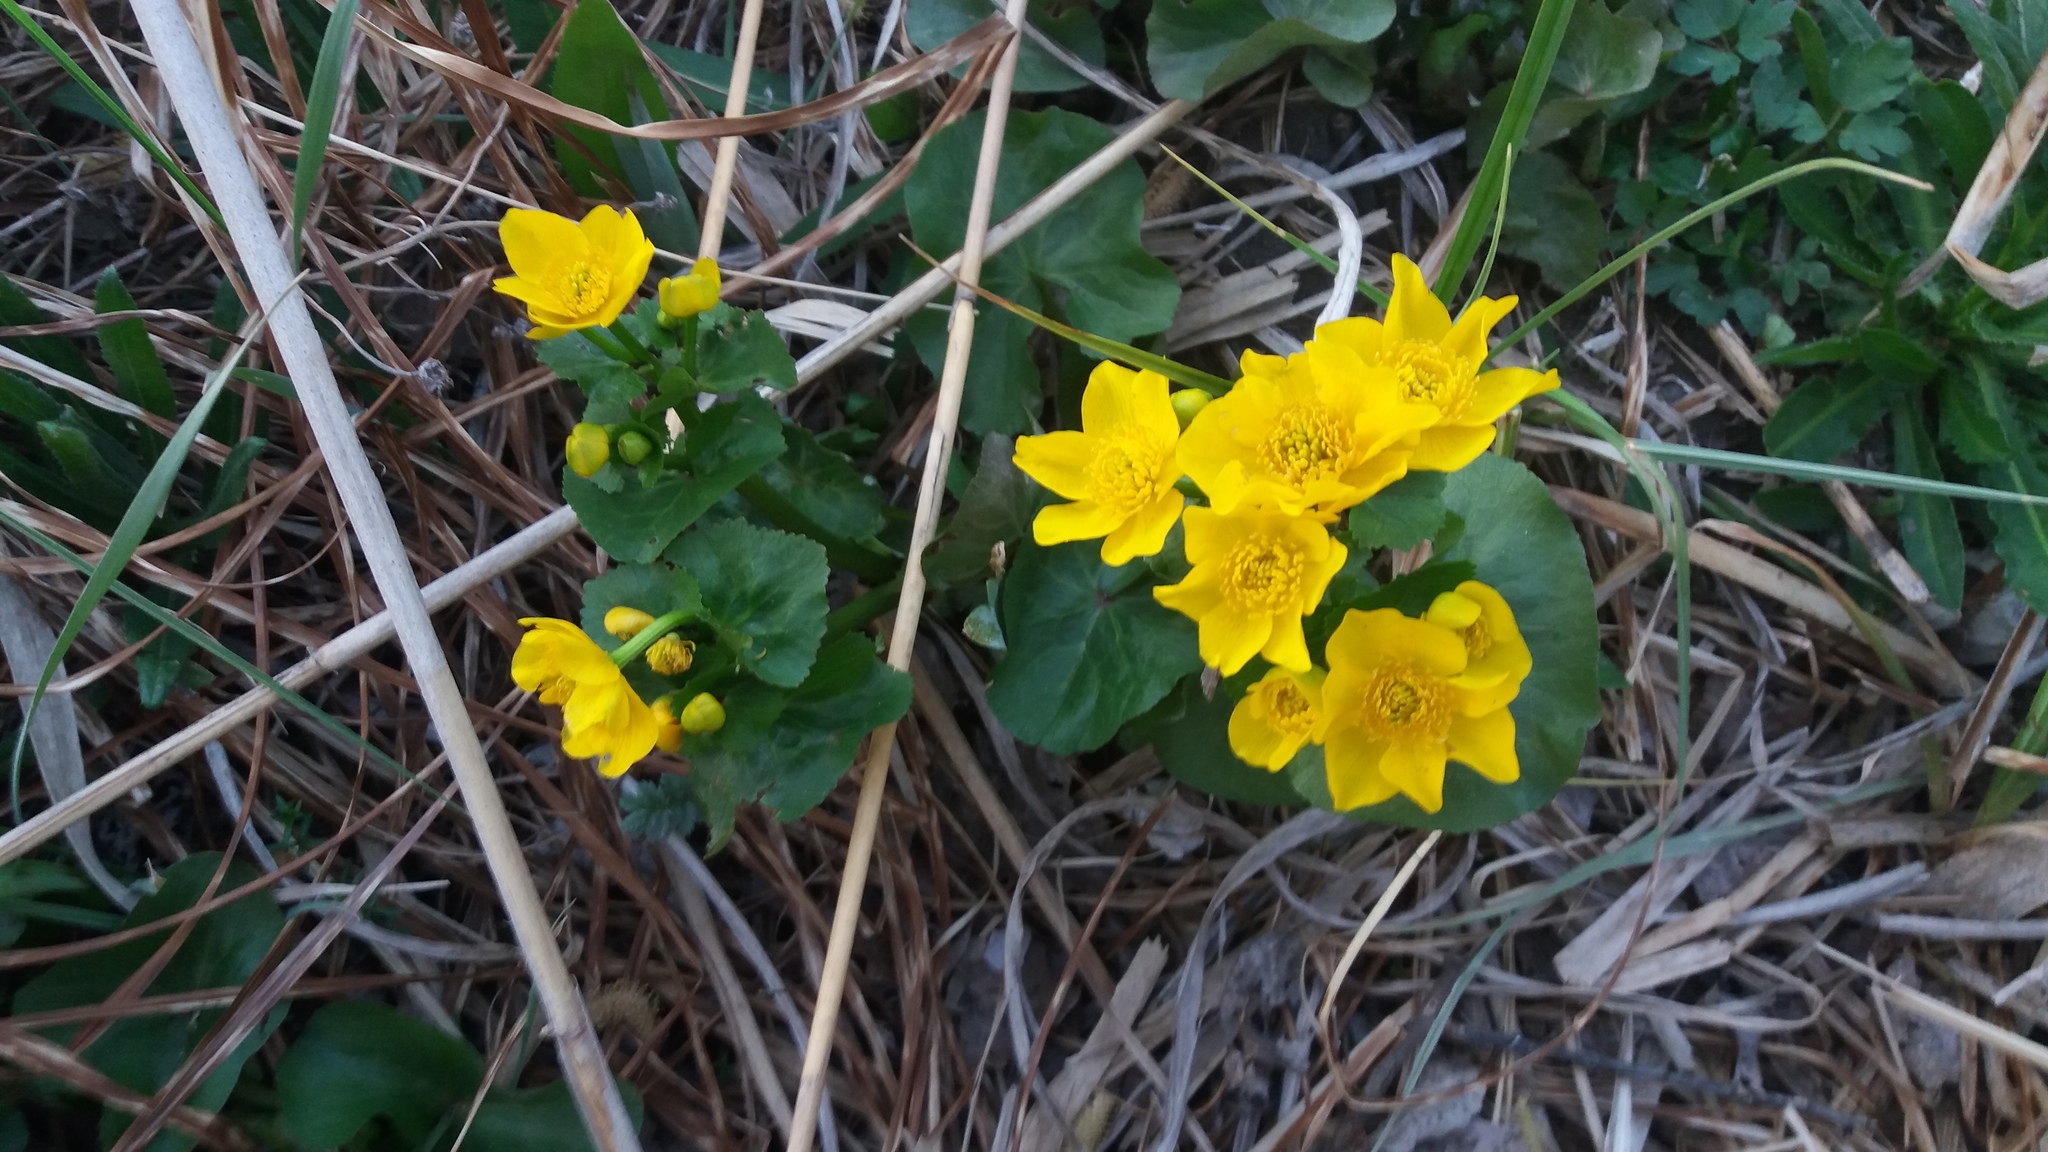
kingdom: Plantae
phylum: Tracheophyta
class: Magnoliopsida
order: Ranunculales
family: Ranunculaceae
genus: Caltha
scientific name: Caltha palustris
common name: Marsh marigold
